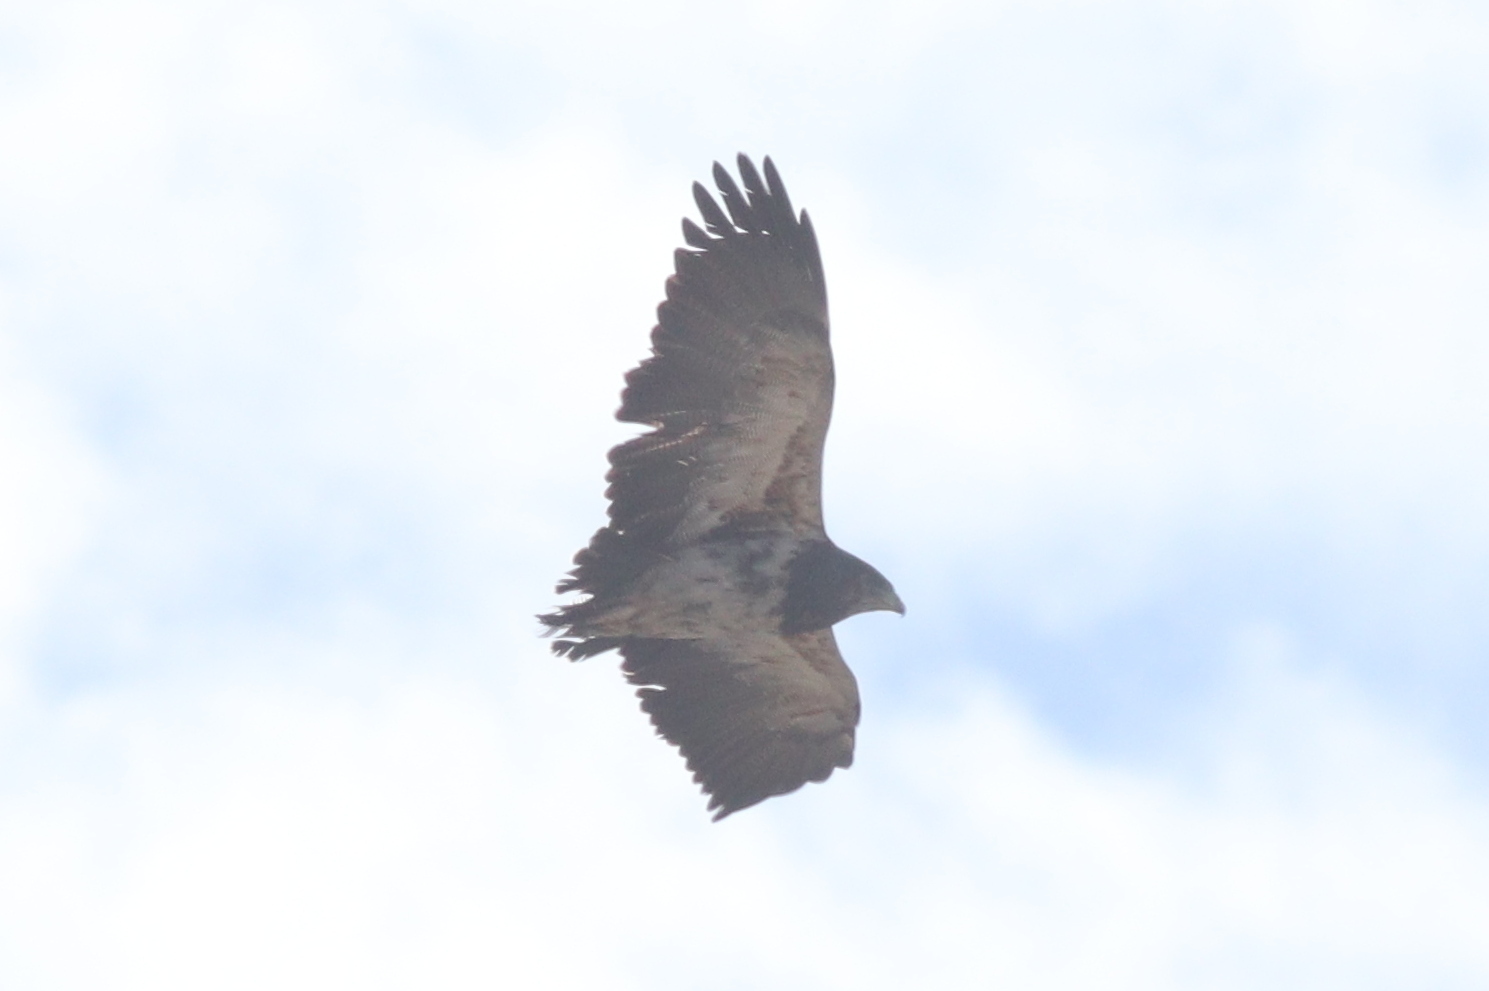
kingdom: Animalia
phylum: Chordata
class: Aves
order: Accipitriformes
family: Accipitridae
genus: Geranoaetus
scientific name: Geranoaetus melanoleucus
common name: Black-chested buzzard-eagle
